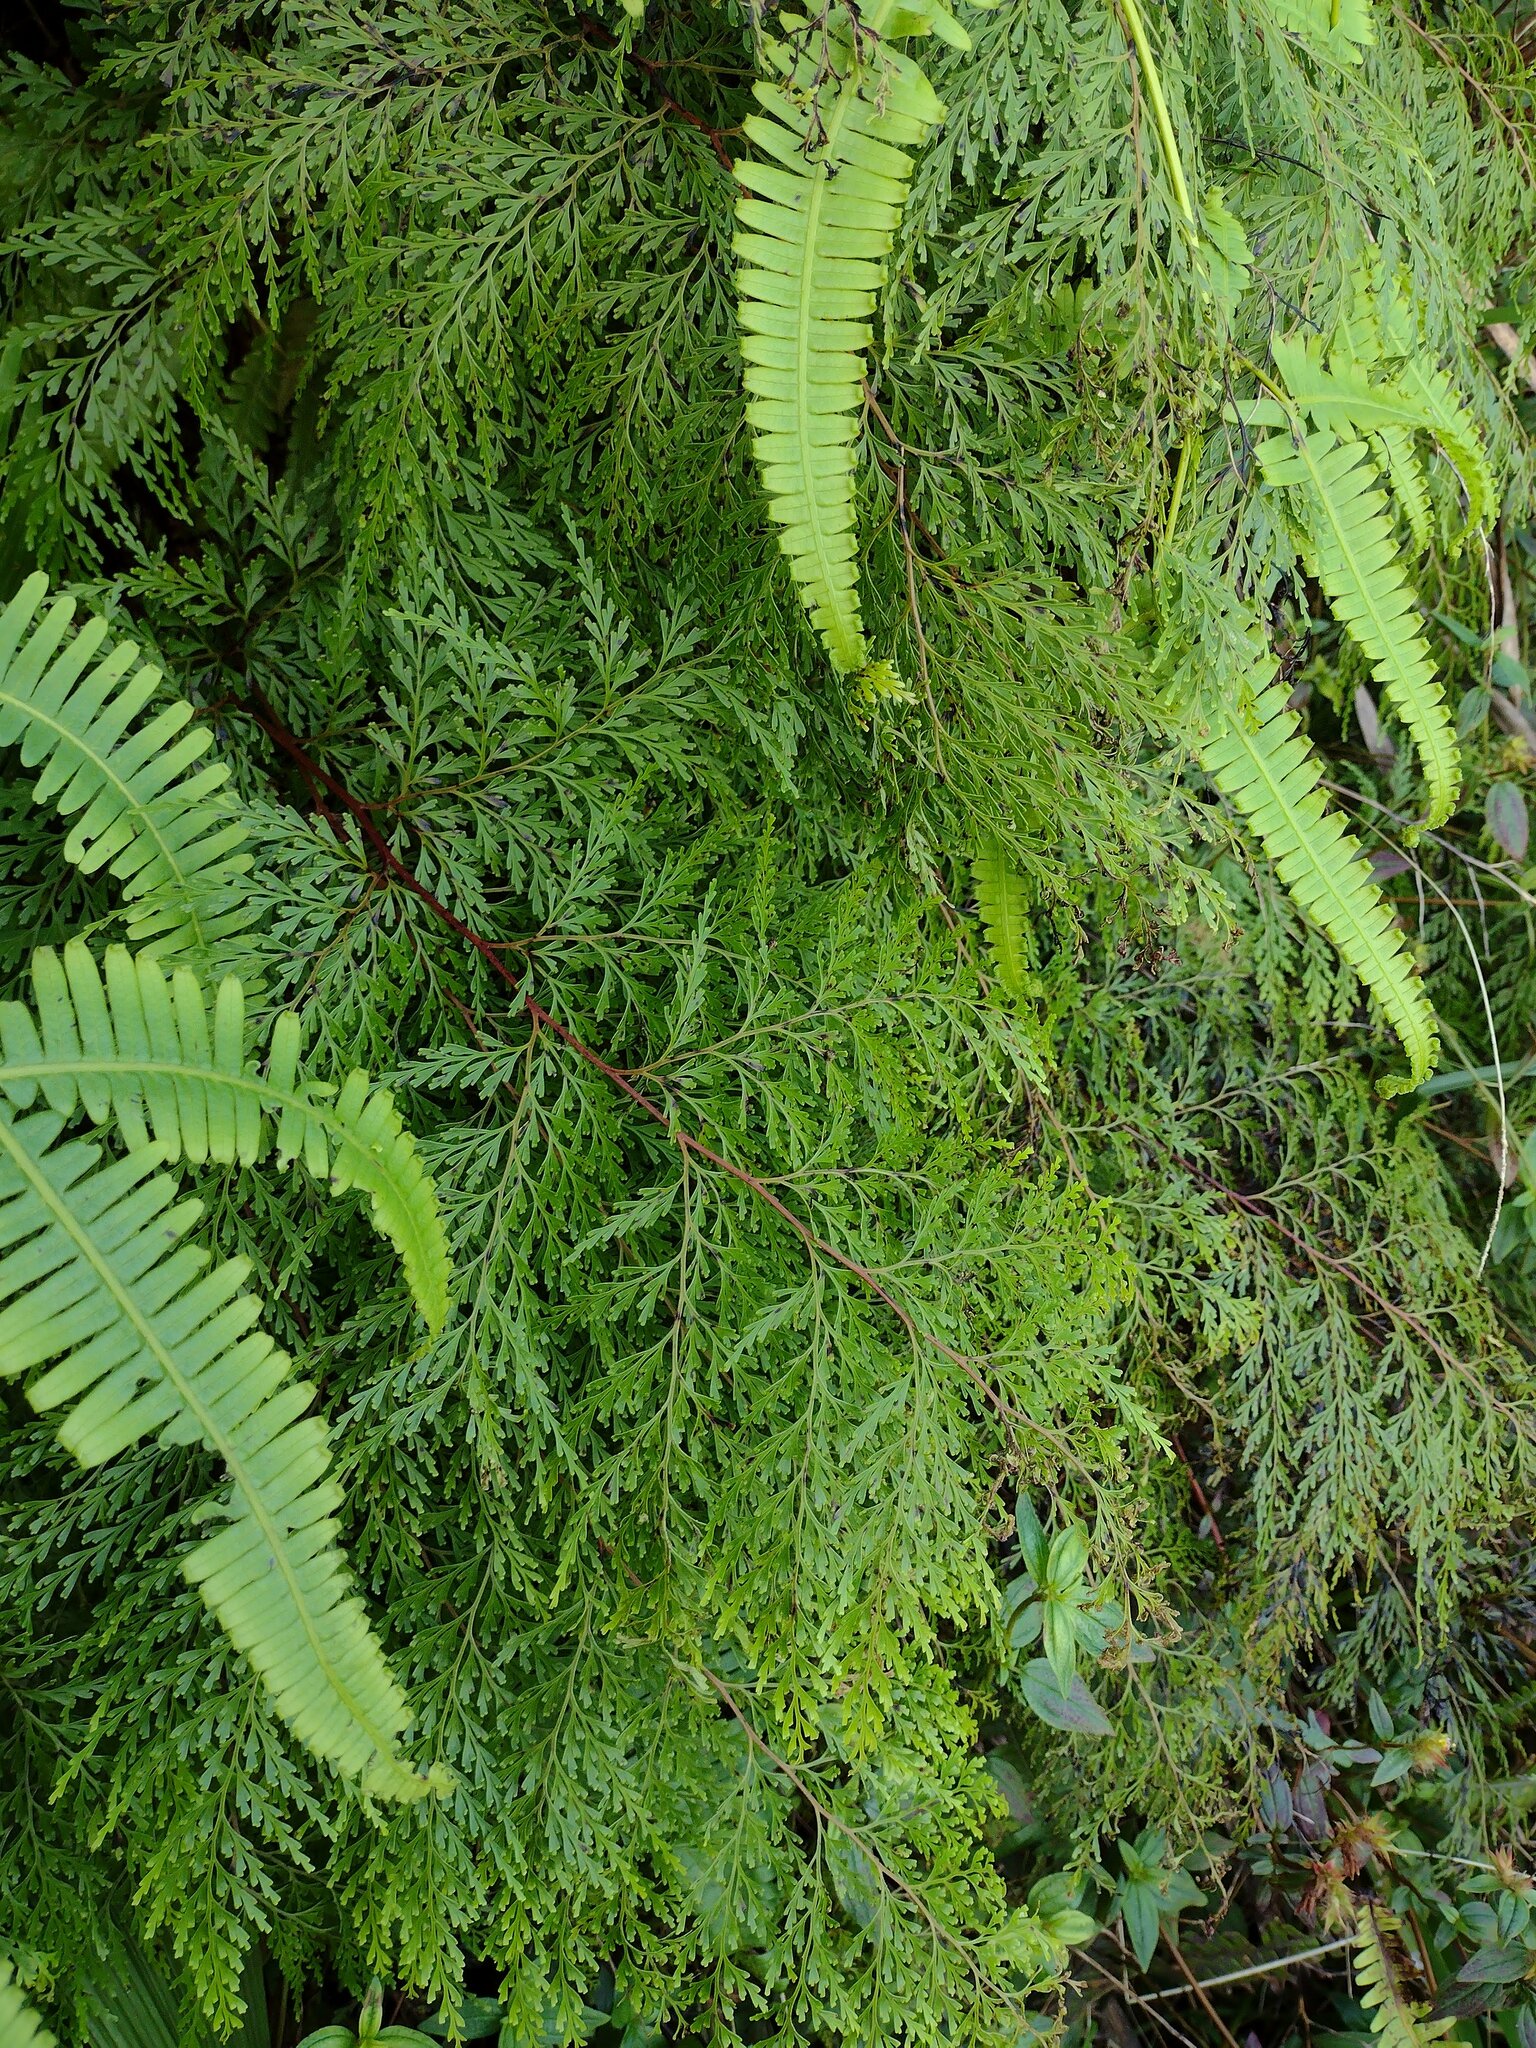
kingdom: Plantae
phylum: Tracheophyta
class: Polypodiopsida
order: Polypodiales
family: Lindsaeaceae
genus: Odontosoria
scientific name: Odontosoria chinensis
